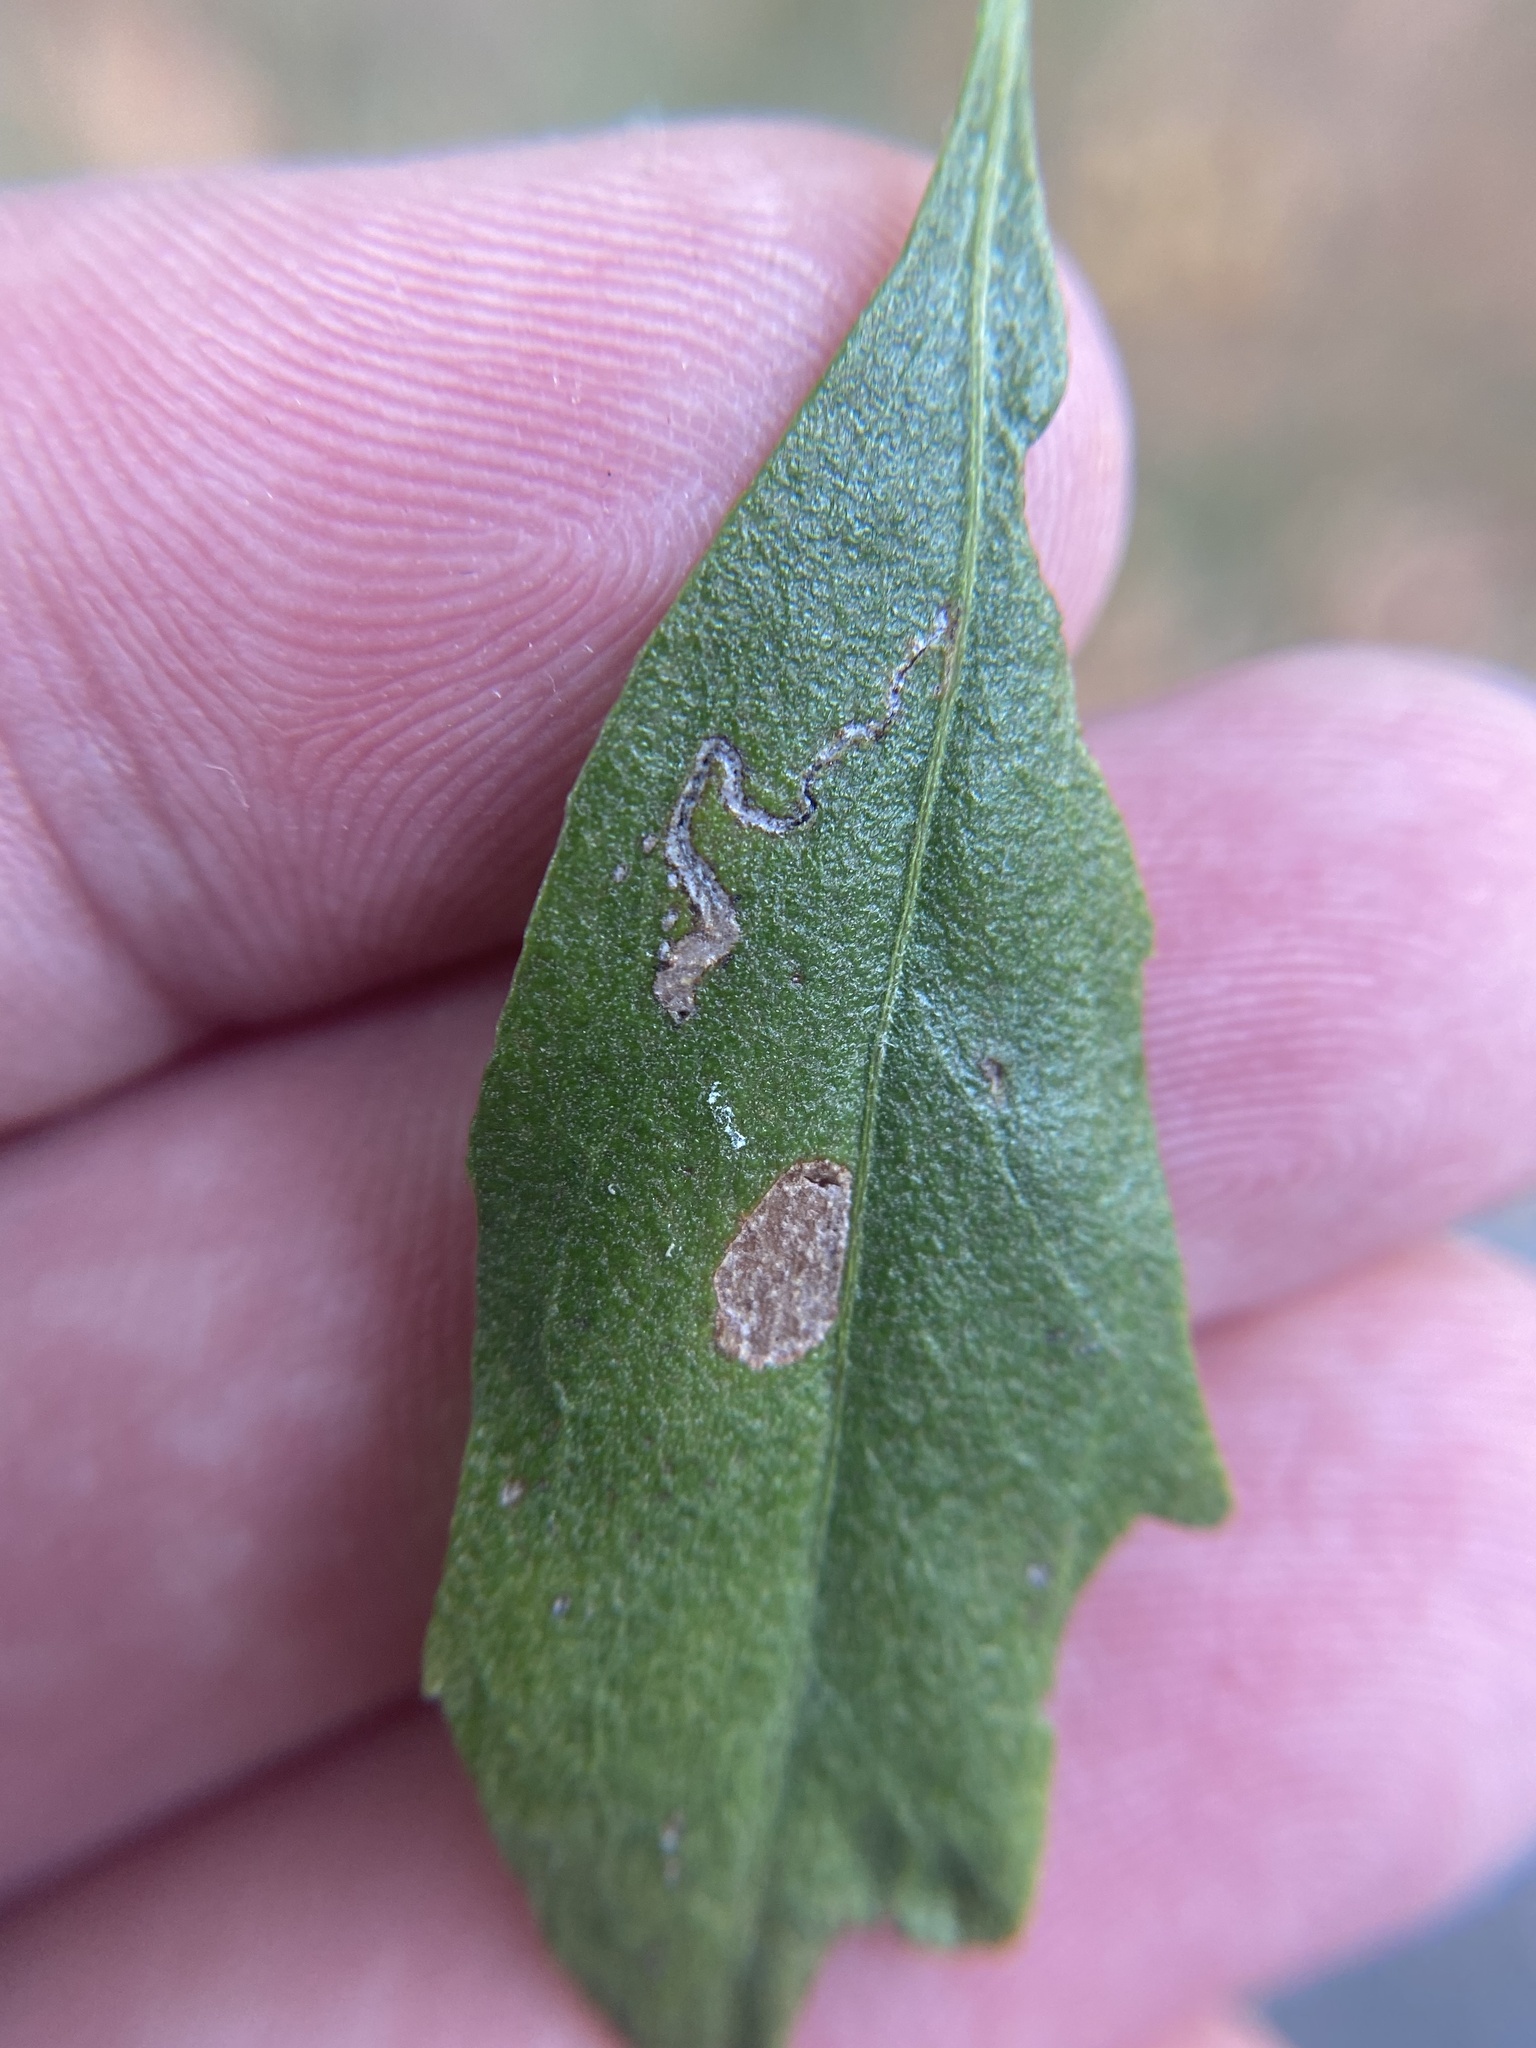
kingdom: Animalia
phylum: Arthropoda
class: Insecta
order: Lepidoptera
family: Bucculatricidae
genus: Bucculatrix
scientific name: Bucculatrix ivella
